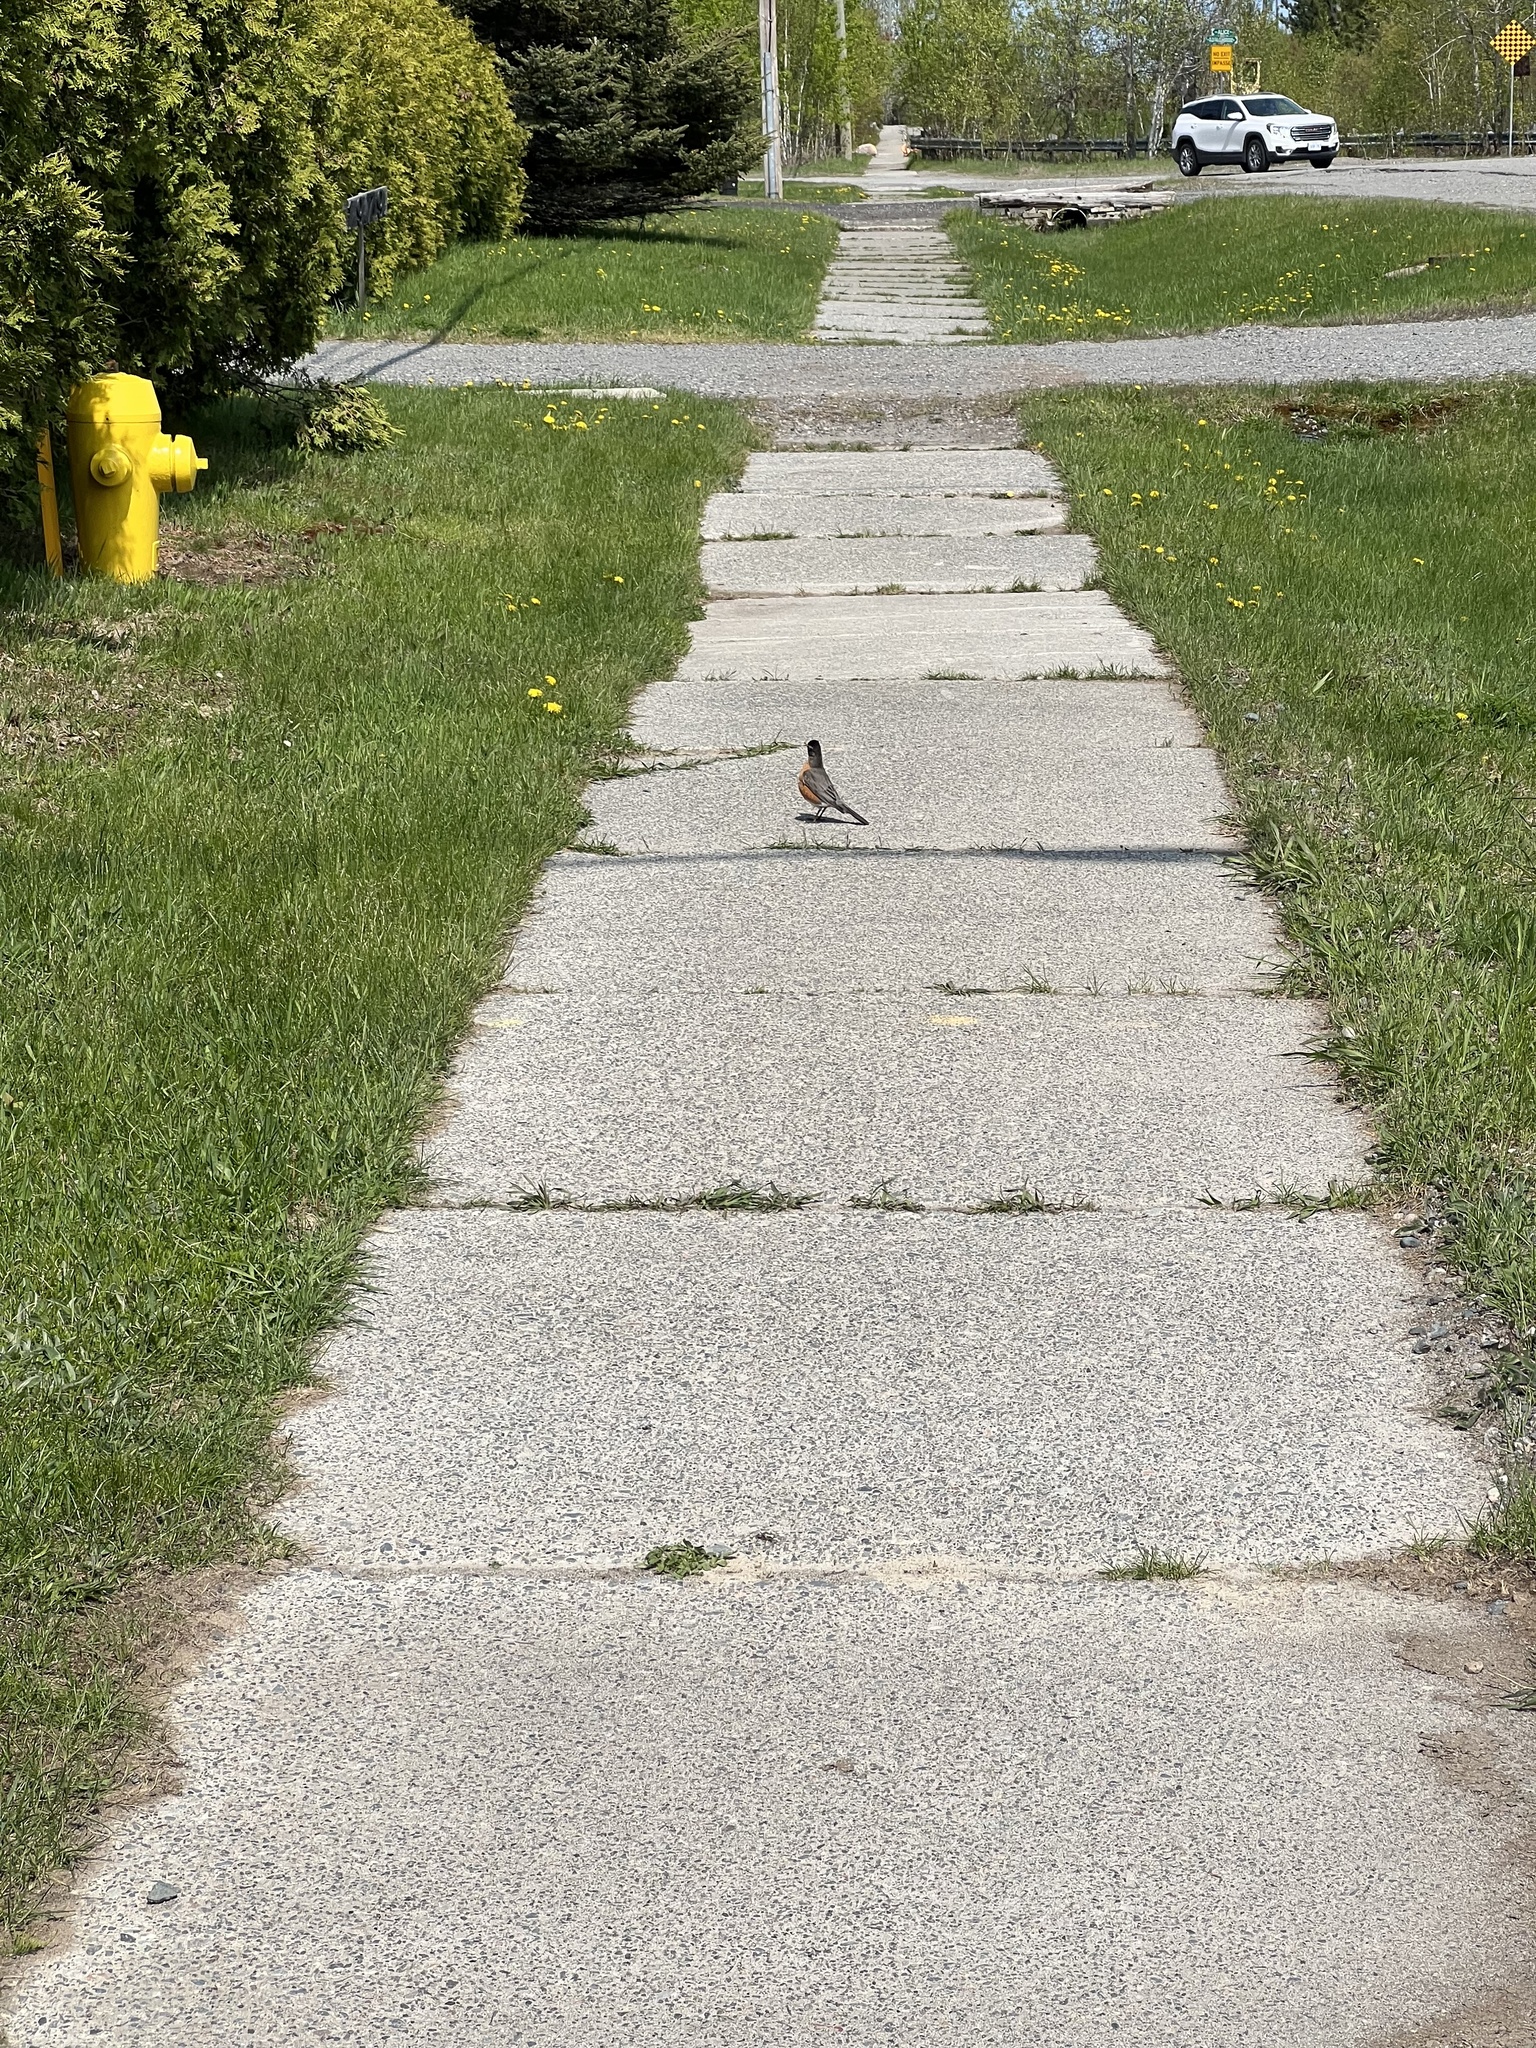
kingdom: Animalia
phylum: Chordata
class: Aves
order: Passeriformes
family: Turdidae
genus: Turdus
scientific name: Turdus migratorius
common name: American robin
